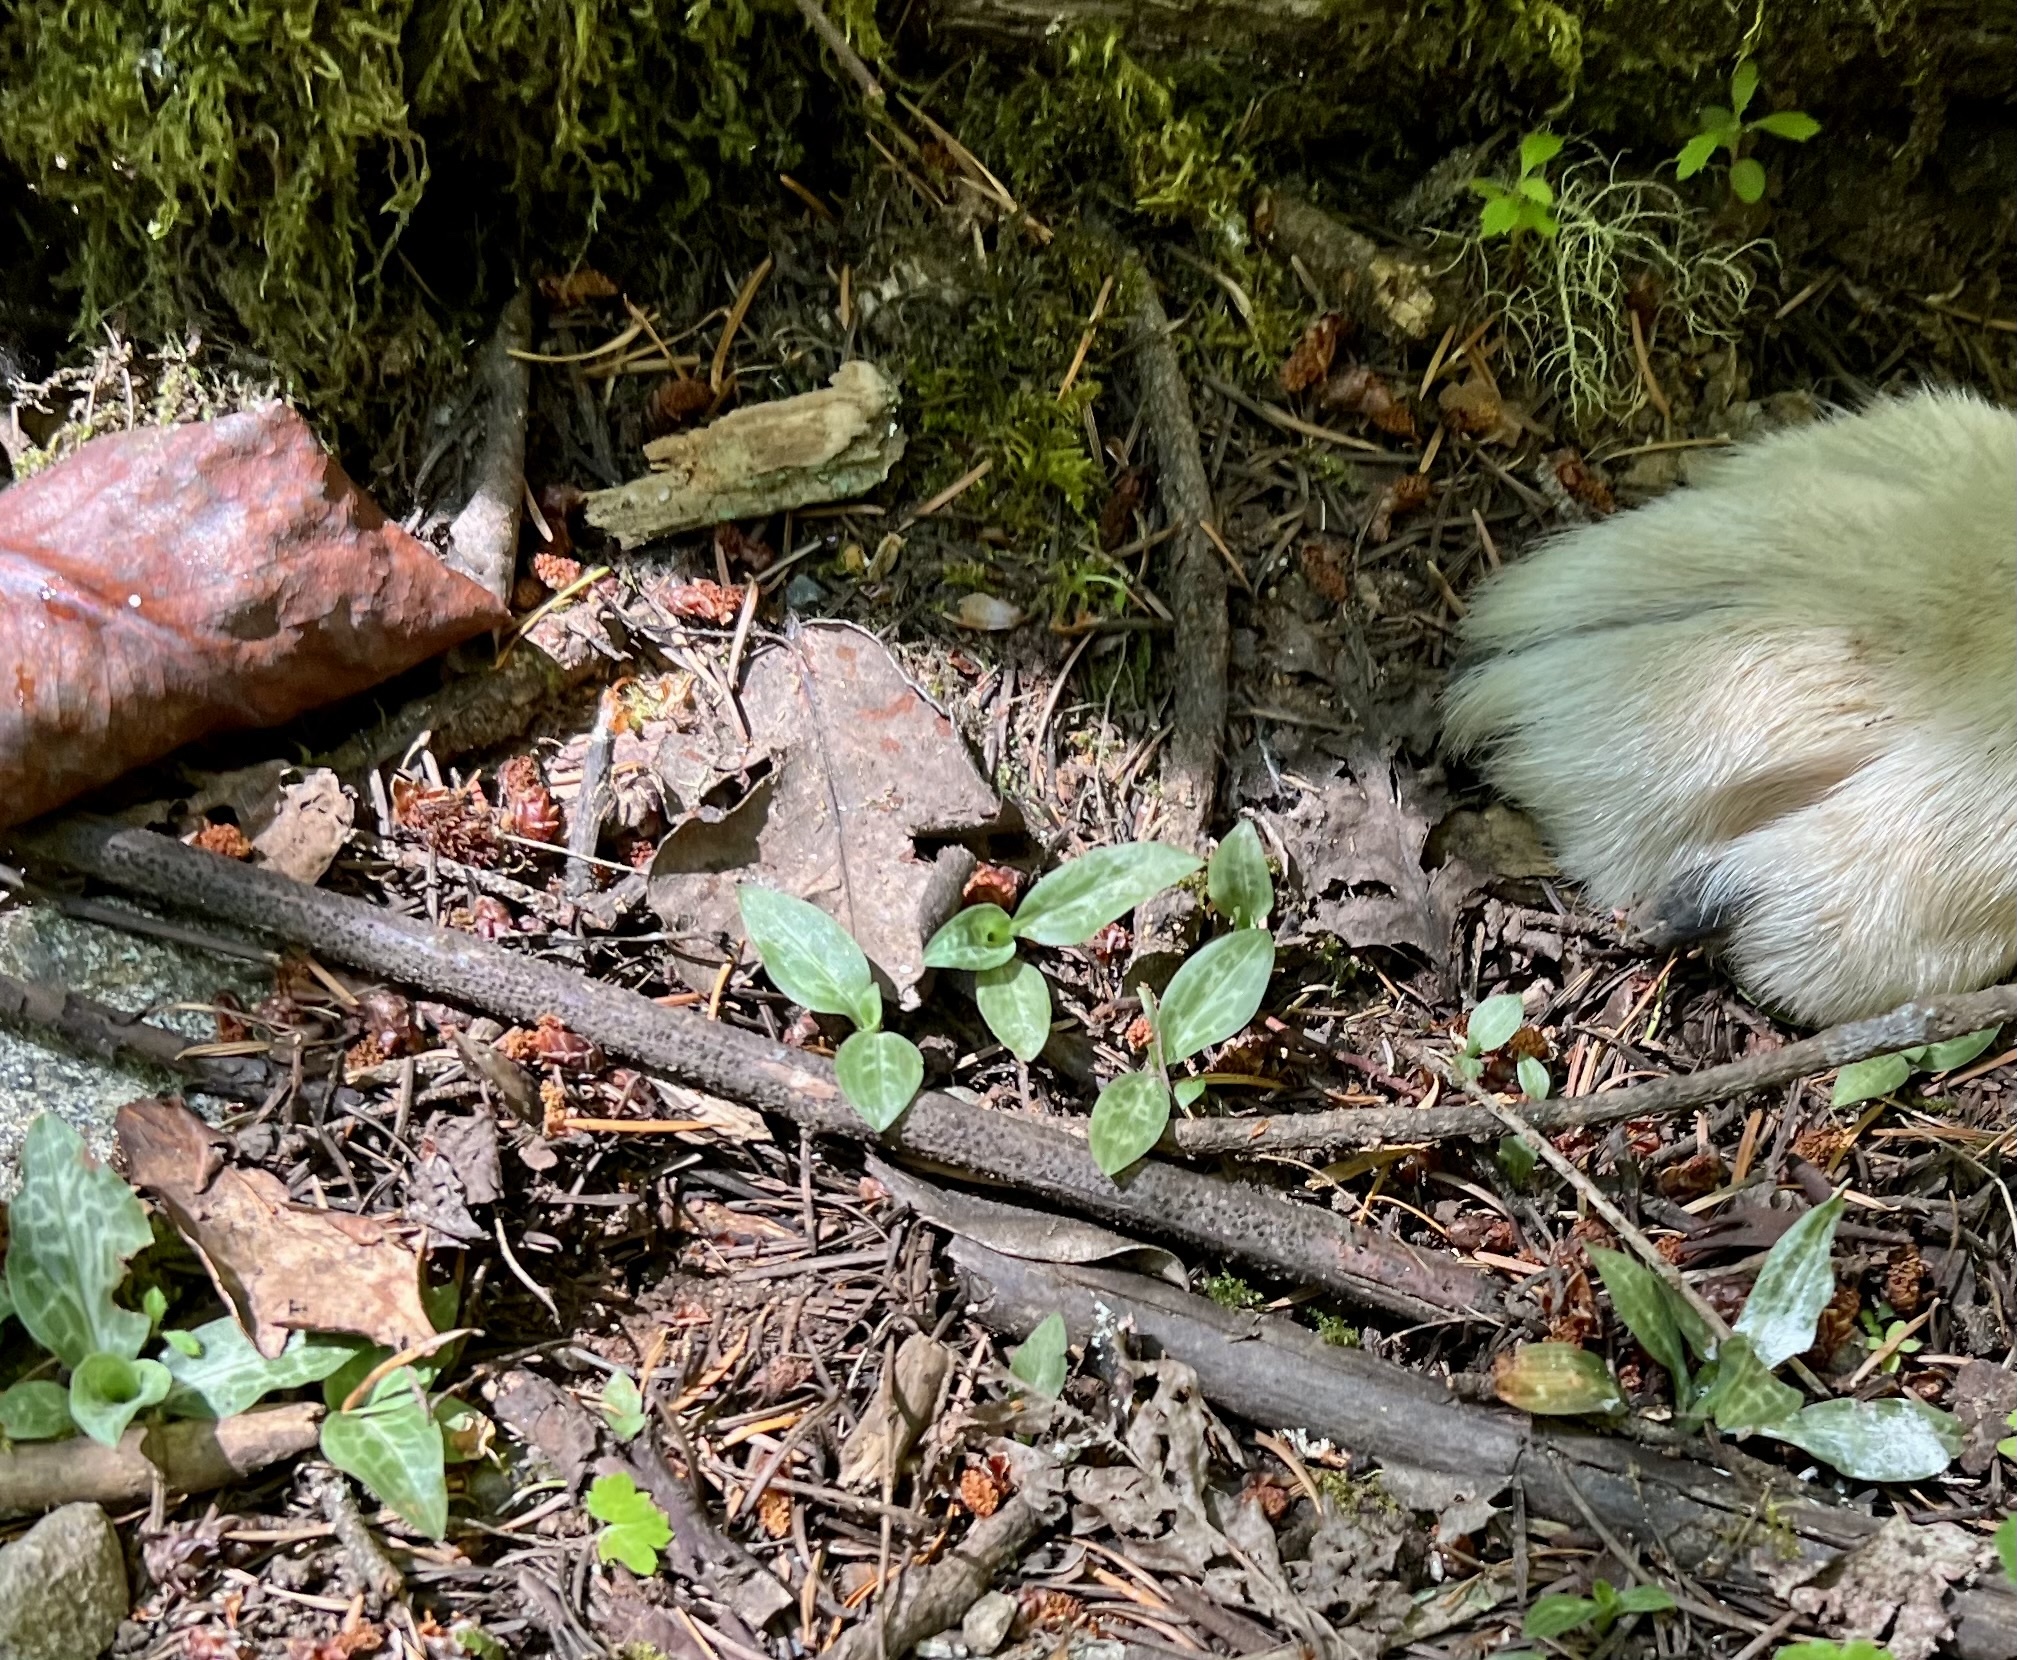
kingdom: Plantae
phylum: Tracheophyta
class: Liliopsida
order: Asparagales
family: Orchidaceae
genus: Goodyera
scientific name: Goodyera oblongifolia
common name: Giant rattlesnake-plantain
